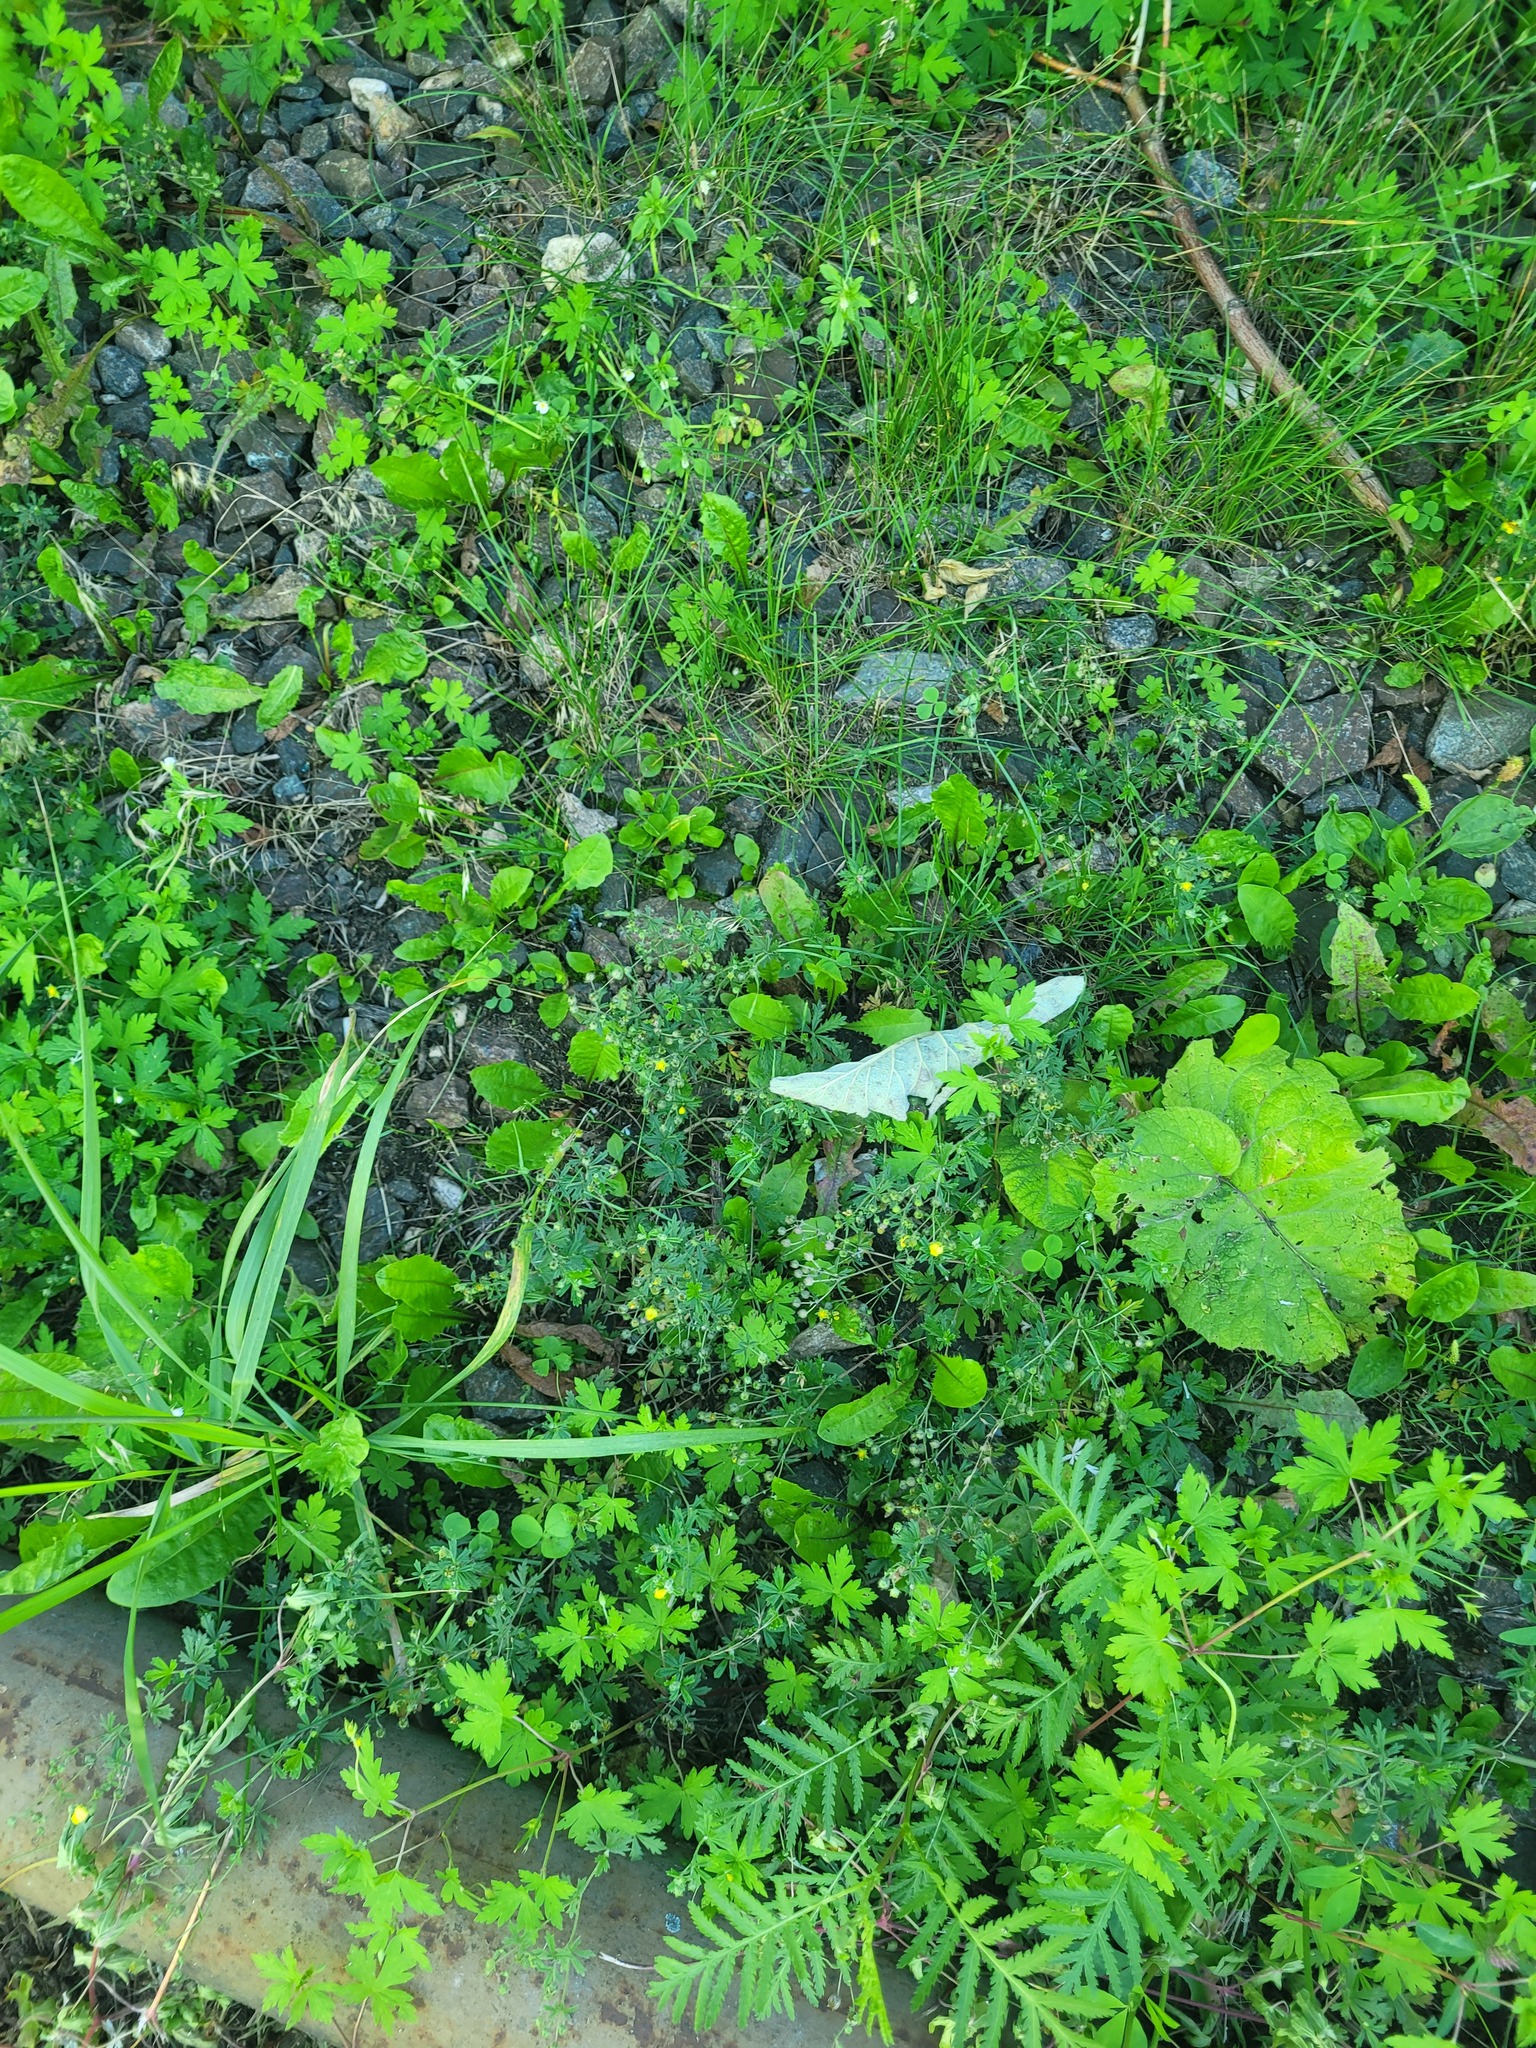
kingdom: Plantae
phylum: Tracheophyta
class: Magnoliopsida
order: Rosales
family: Rosaceae
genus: Potentilla
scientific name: Potentilla argentea
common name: Hoary cinquefoil
